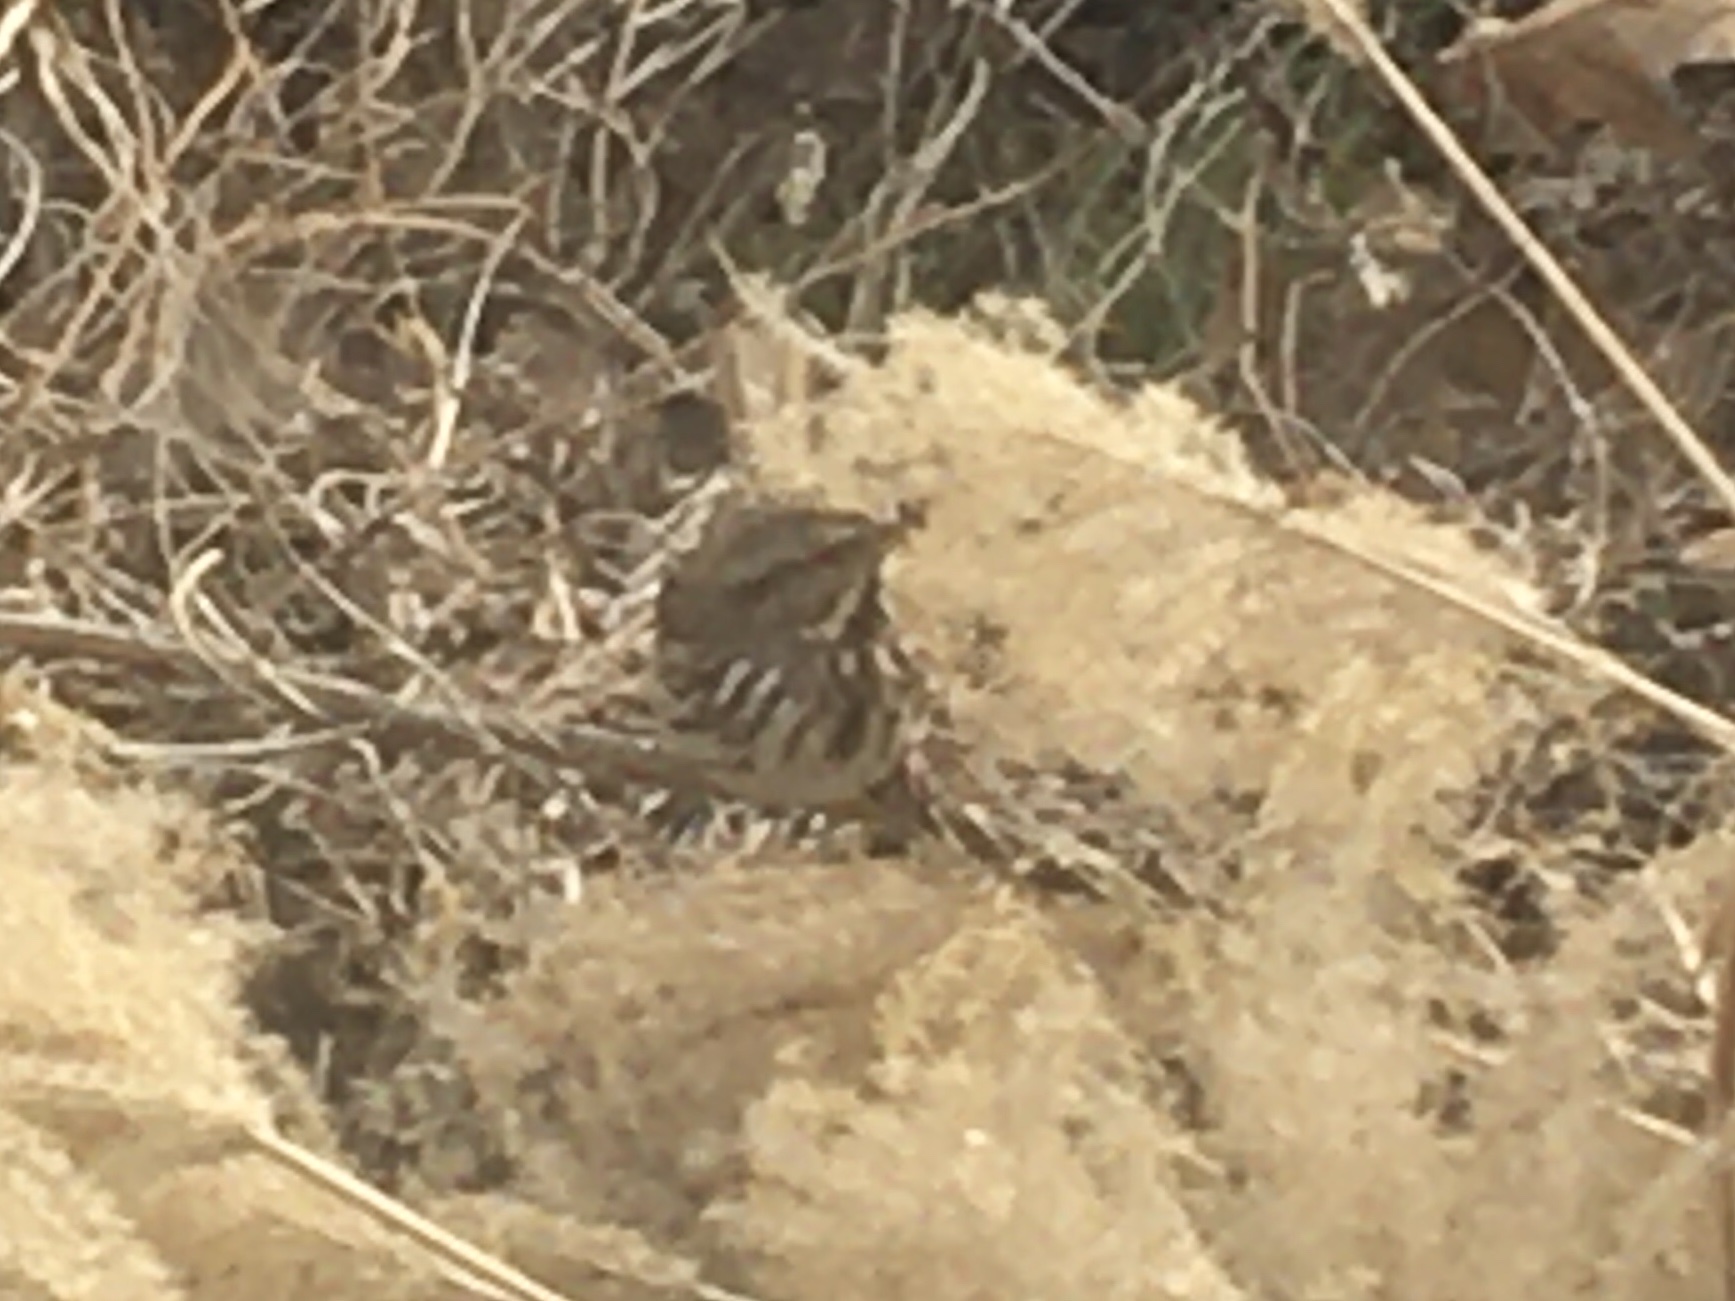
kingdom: Animalia
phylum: Chordata
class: Aves
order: Passeriformes
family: Passerellidae
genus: Melospiza
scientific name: Melospiza melodia
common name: Song sparrow
